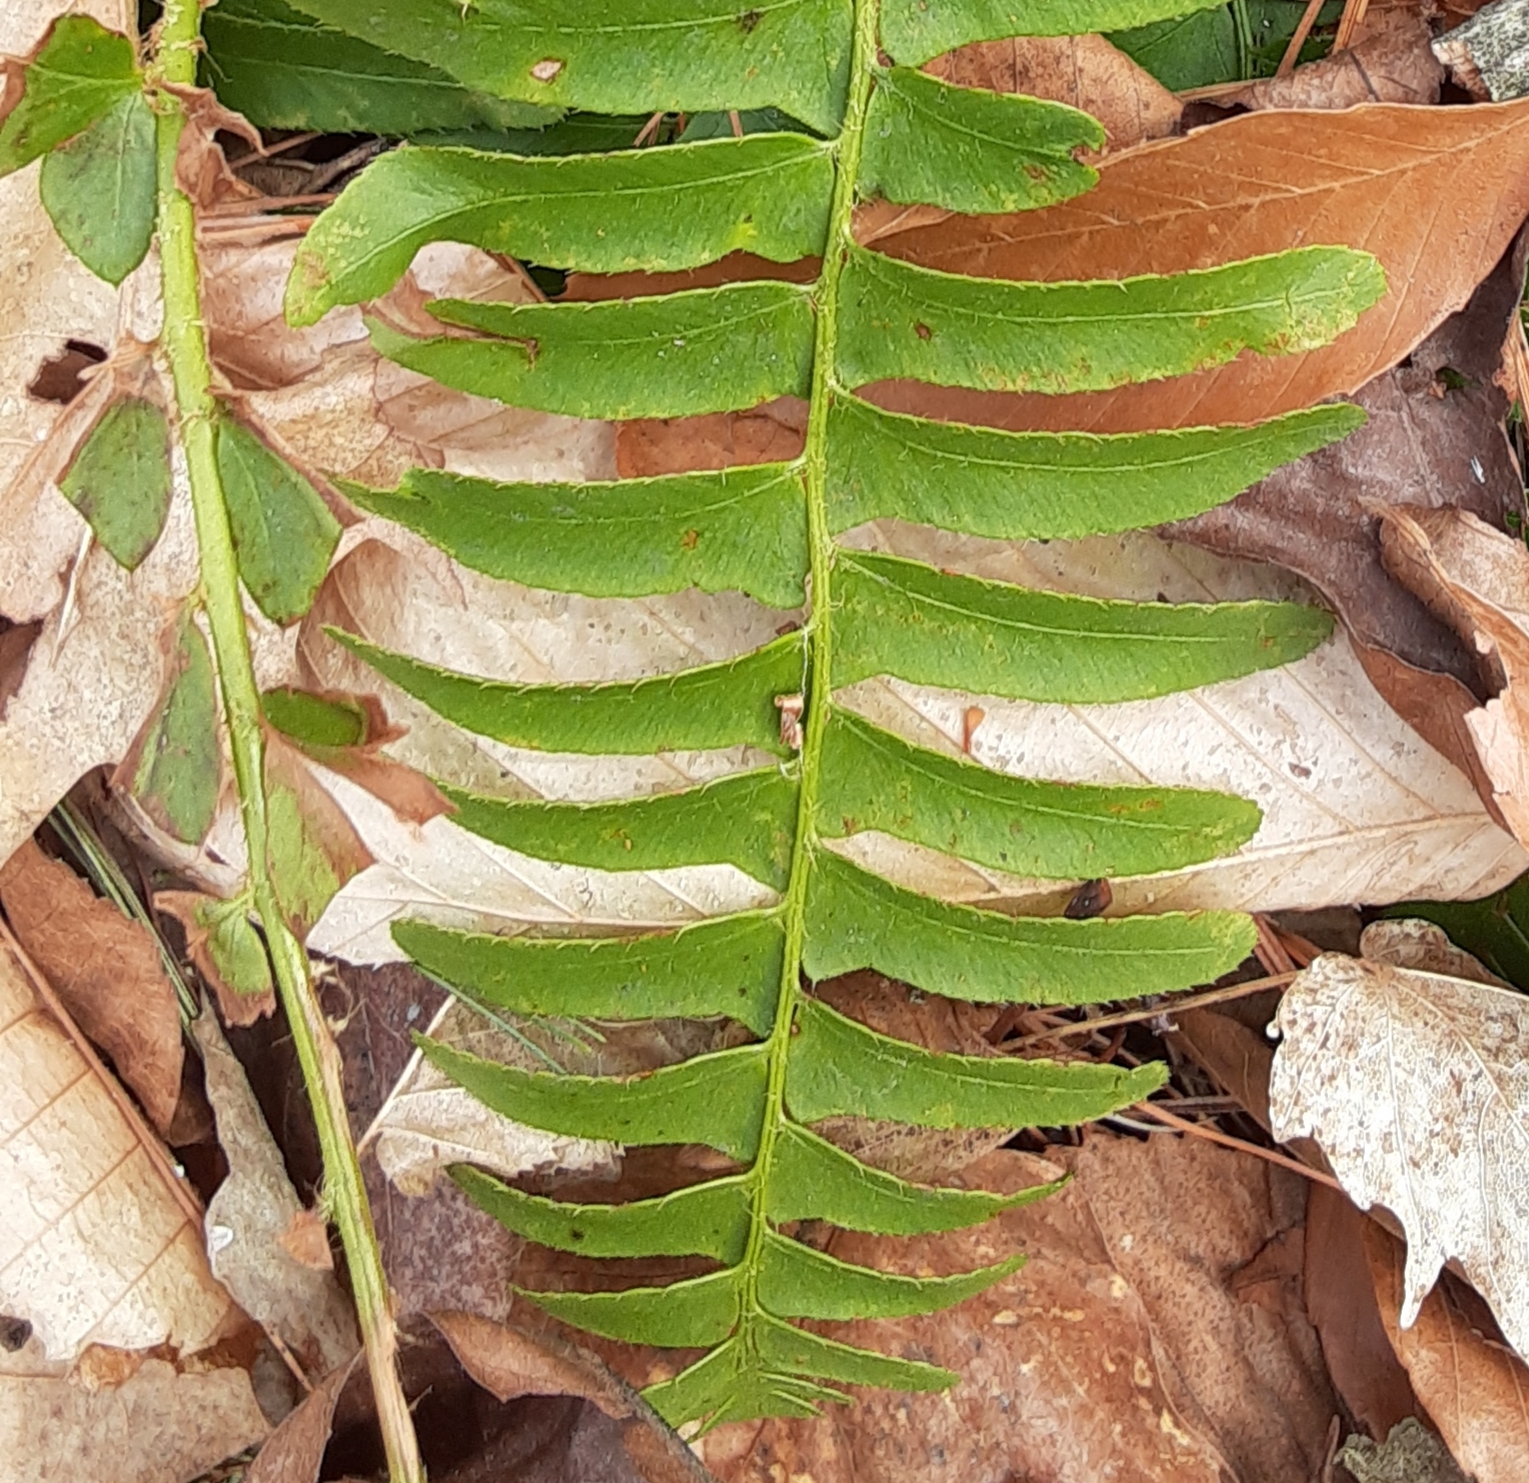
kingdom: Plantae
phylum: Tracheophyta
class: Polypodiopsida
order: Polypodiales
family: Dryopteridaceae
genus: Polystichum
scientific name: Polystichum acrostichoides
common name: Christmas fern
